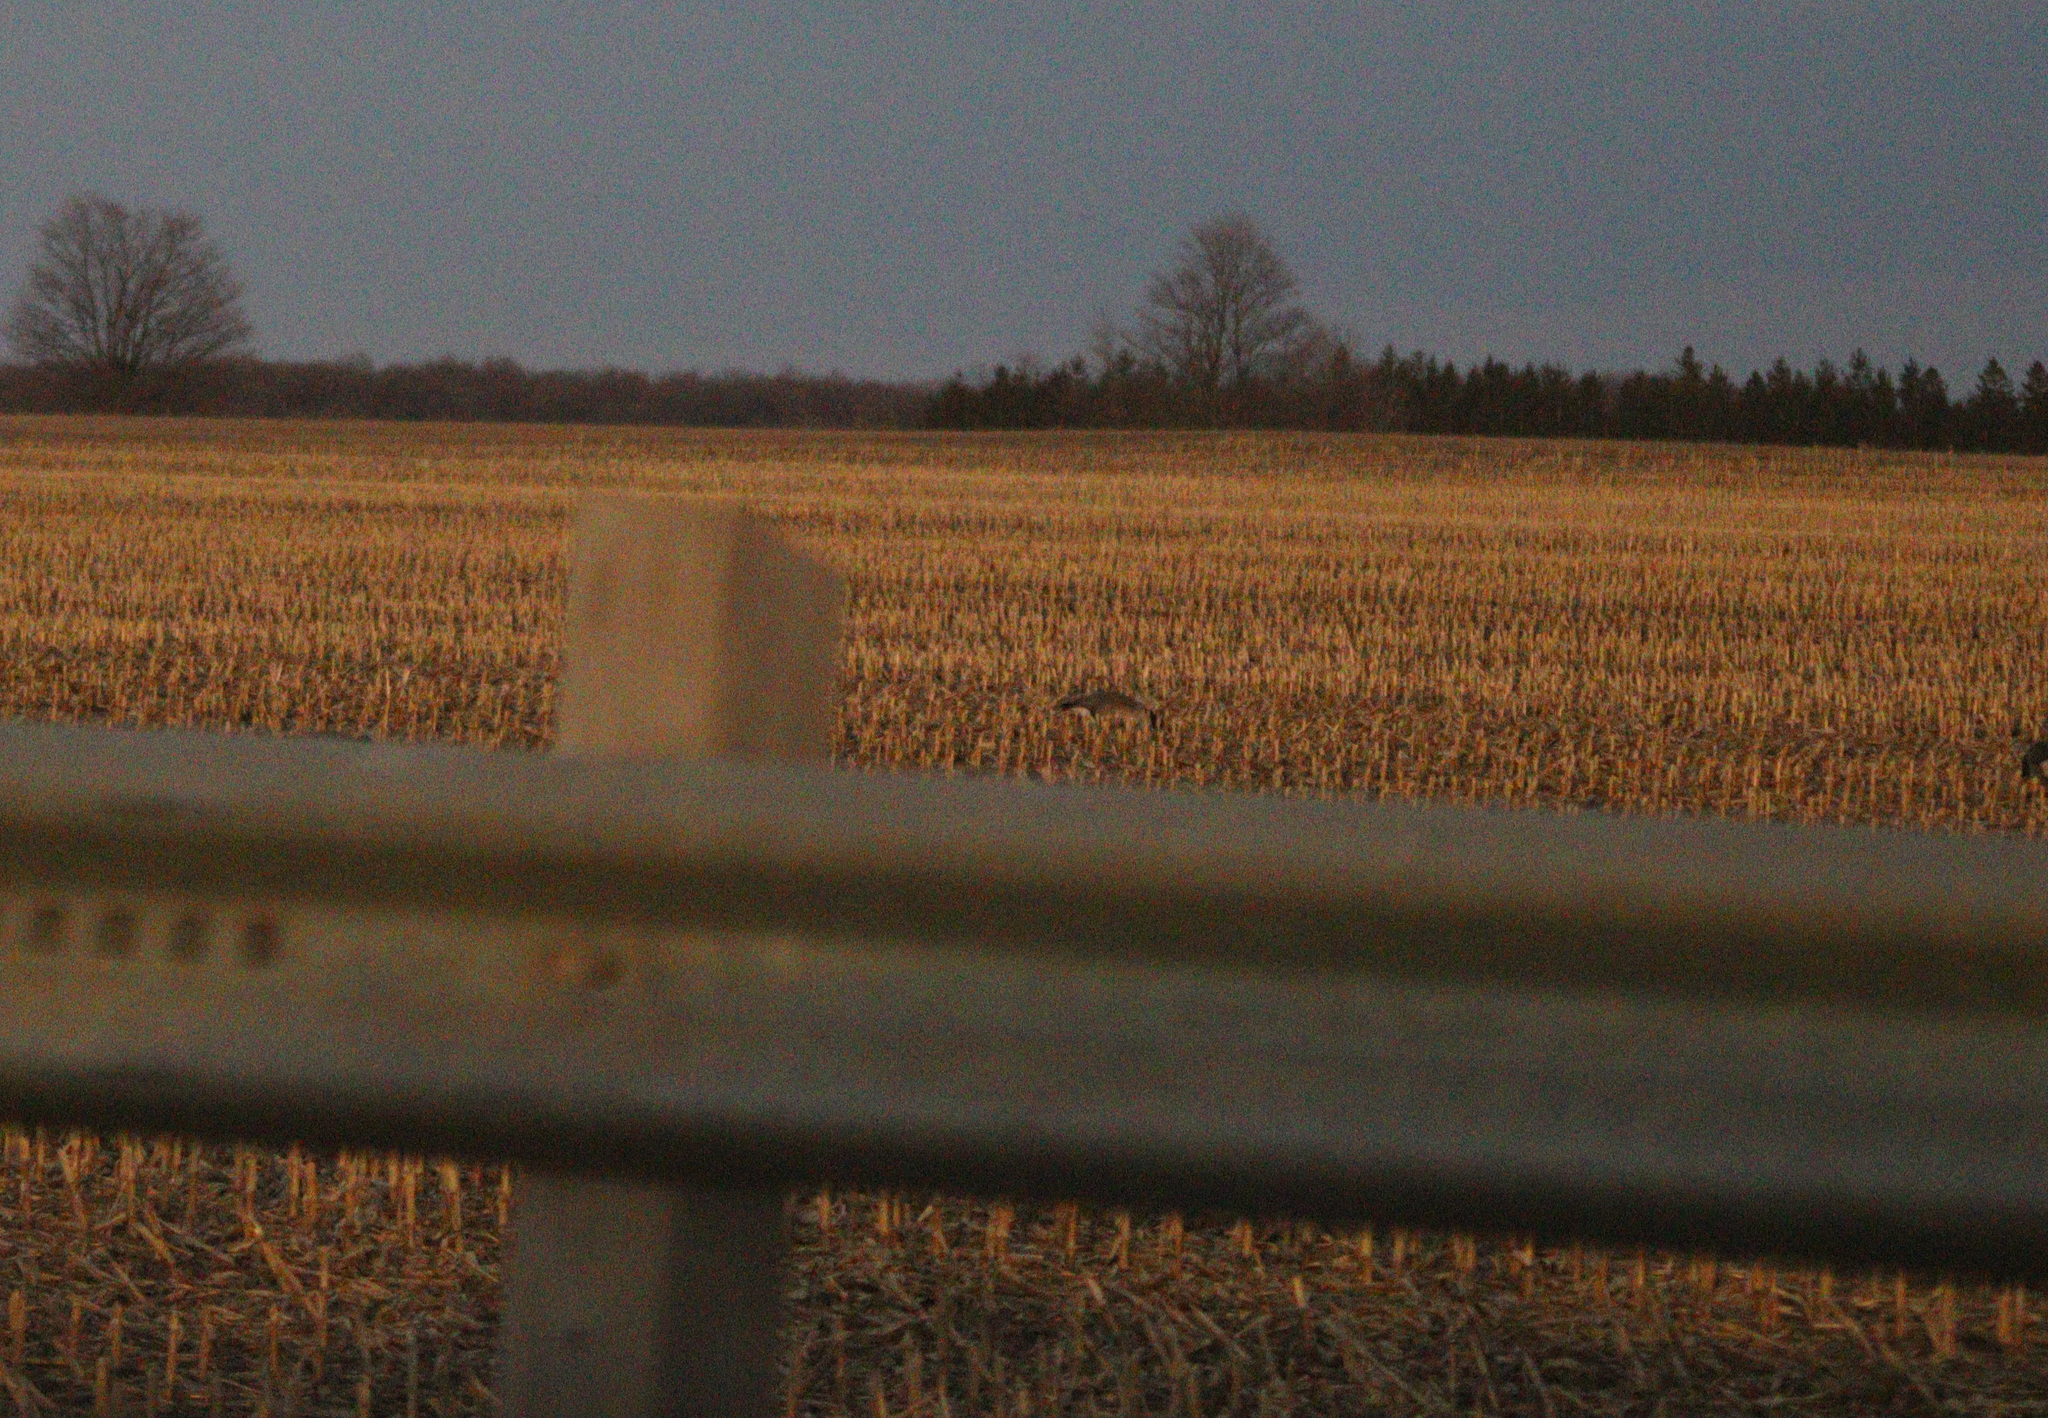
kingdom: Animalia
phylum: Chordata
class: Aves
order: Anseriformes
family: Anatidae
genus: Branta
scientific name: Branta canadensis
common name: Canada goose
